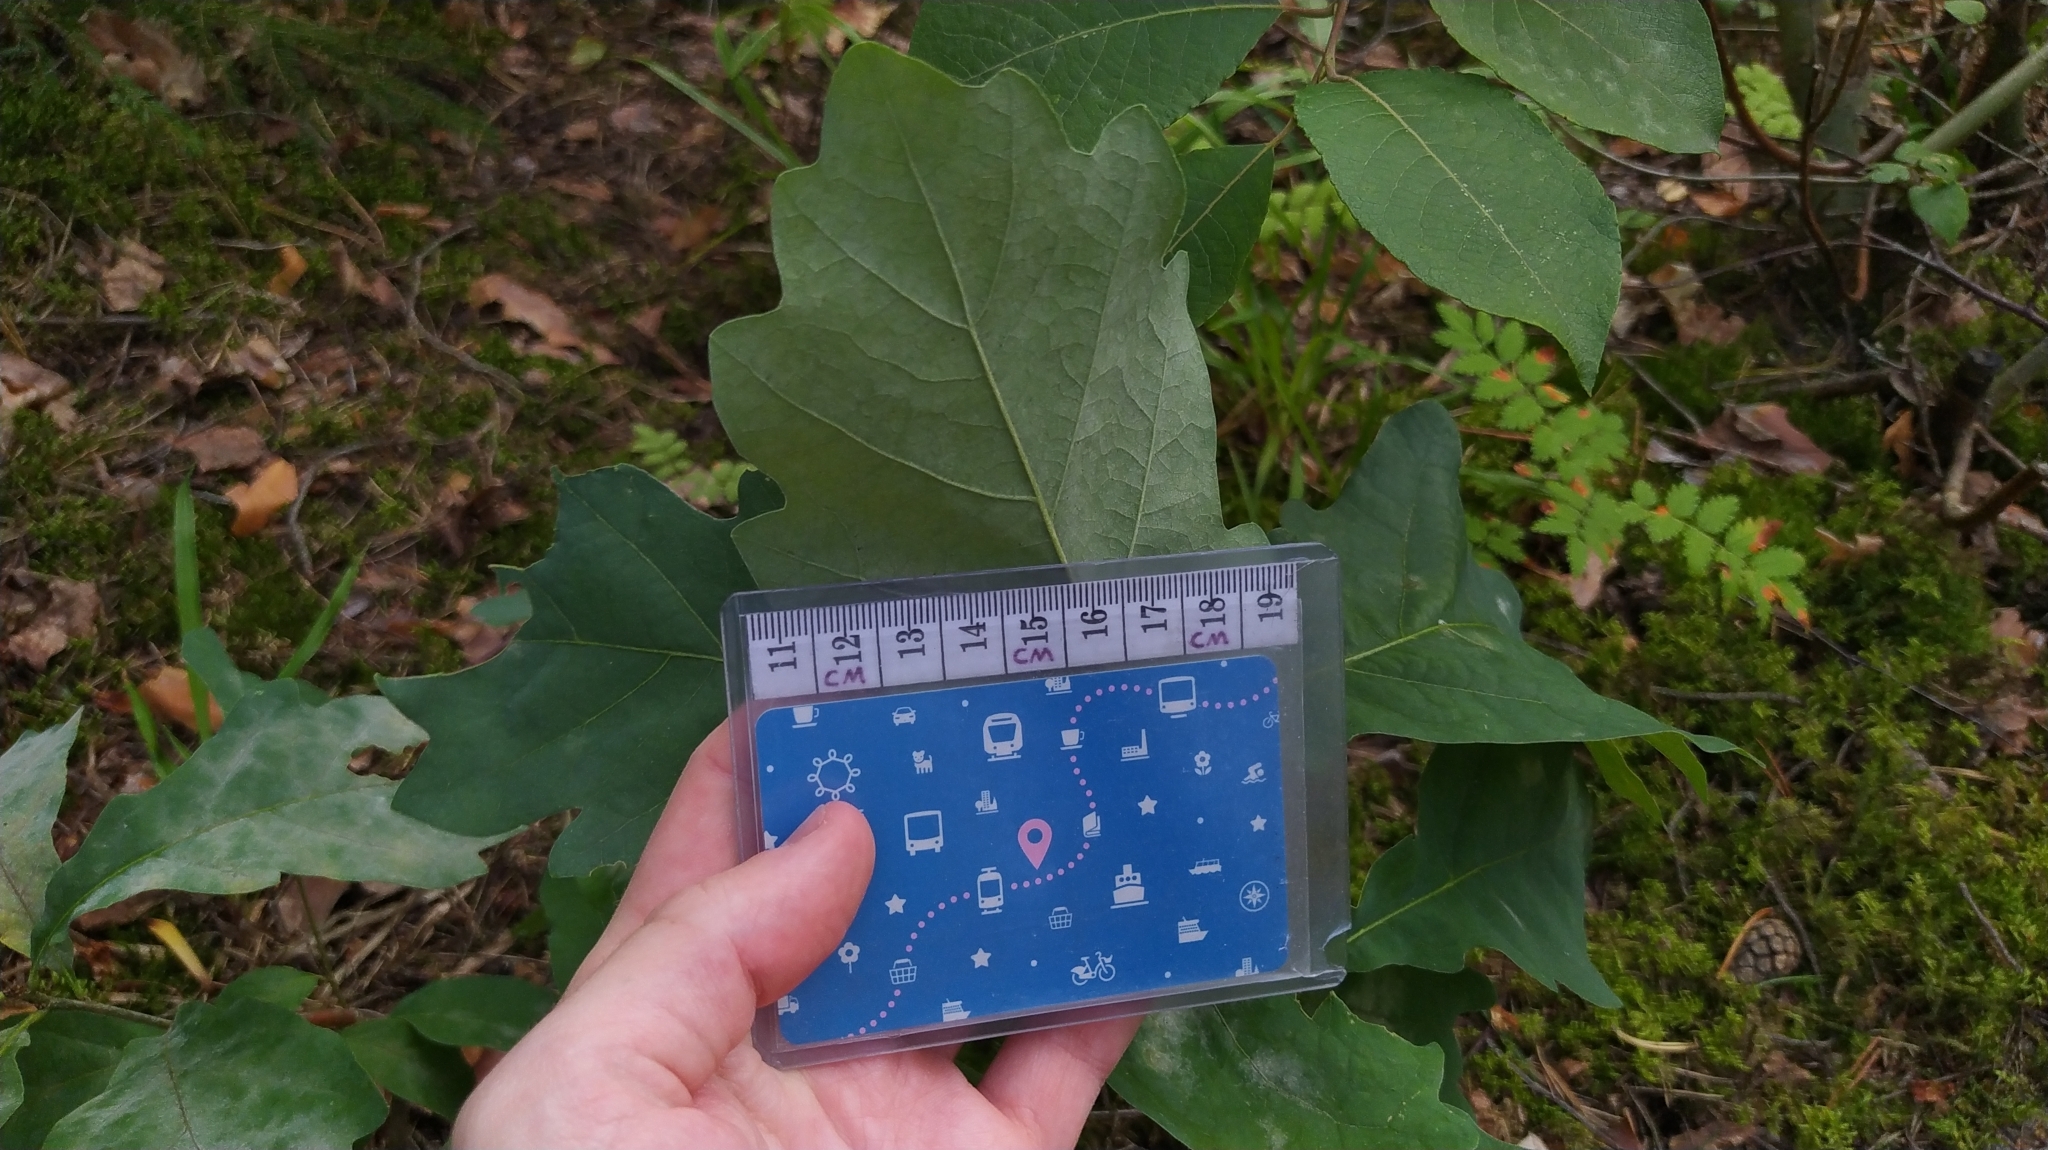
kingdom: Plantae
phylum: Tracheophyta
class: Magnoliopsida
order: Fagales
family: Fagaceae
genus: Quercus
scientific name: Quercus robur
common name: Pedunculate oak
